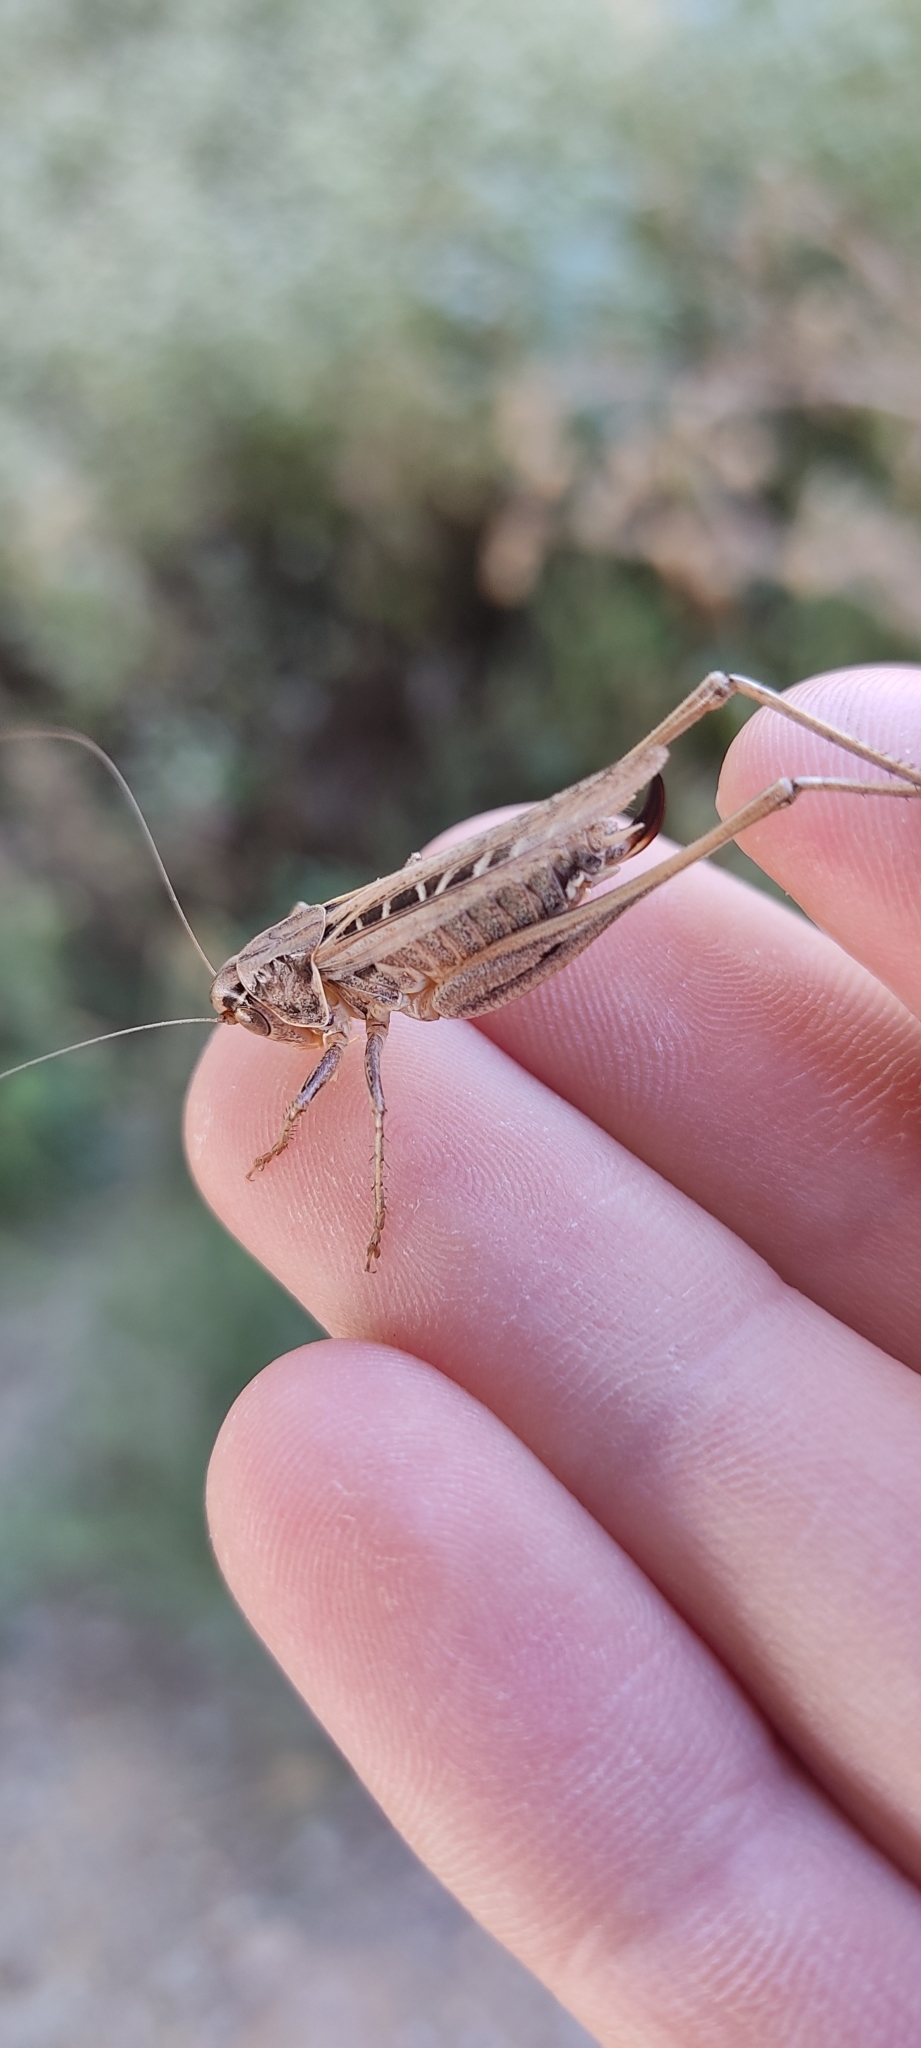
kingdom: Animalia
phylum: Arthropoda
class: Insecta
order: Orthoptera
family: Tettigoniidae
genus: Tessellana
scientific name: Tessellana tessellata
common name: Grasshopper
